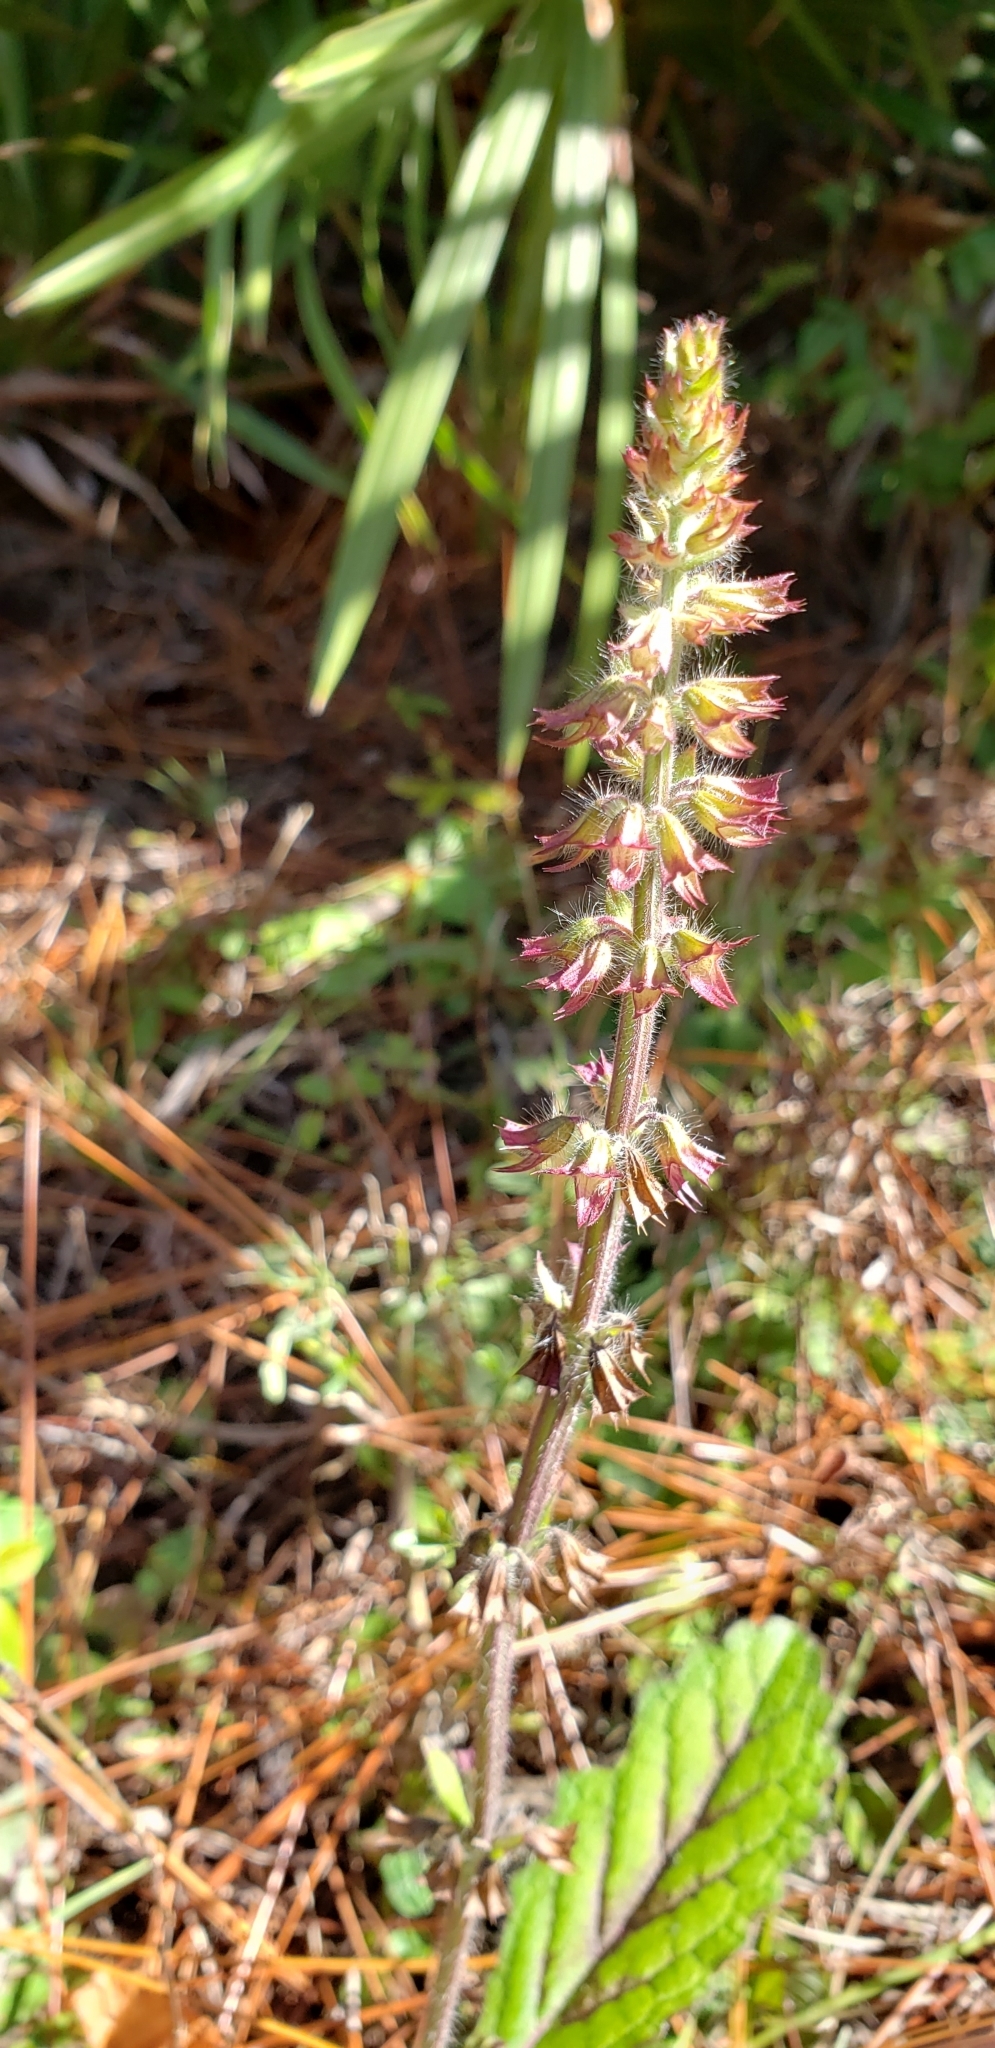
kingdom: Plantae
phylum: Tracheophyta
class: Magnoliopsida
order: Lamiales
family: Lamiaceae
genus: Salvia
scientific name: Salvia lyrata
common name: Cancerweed
